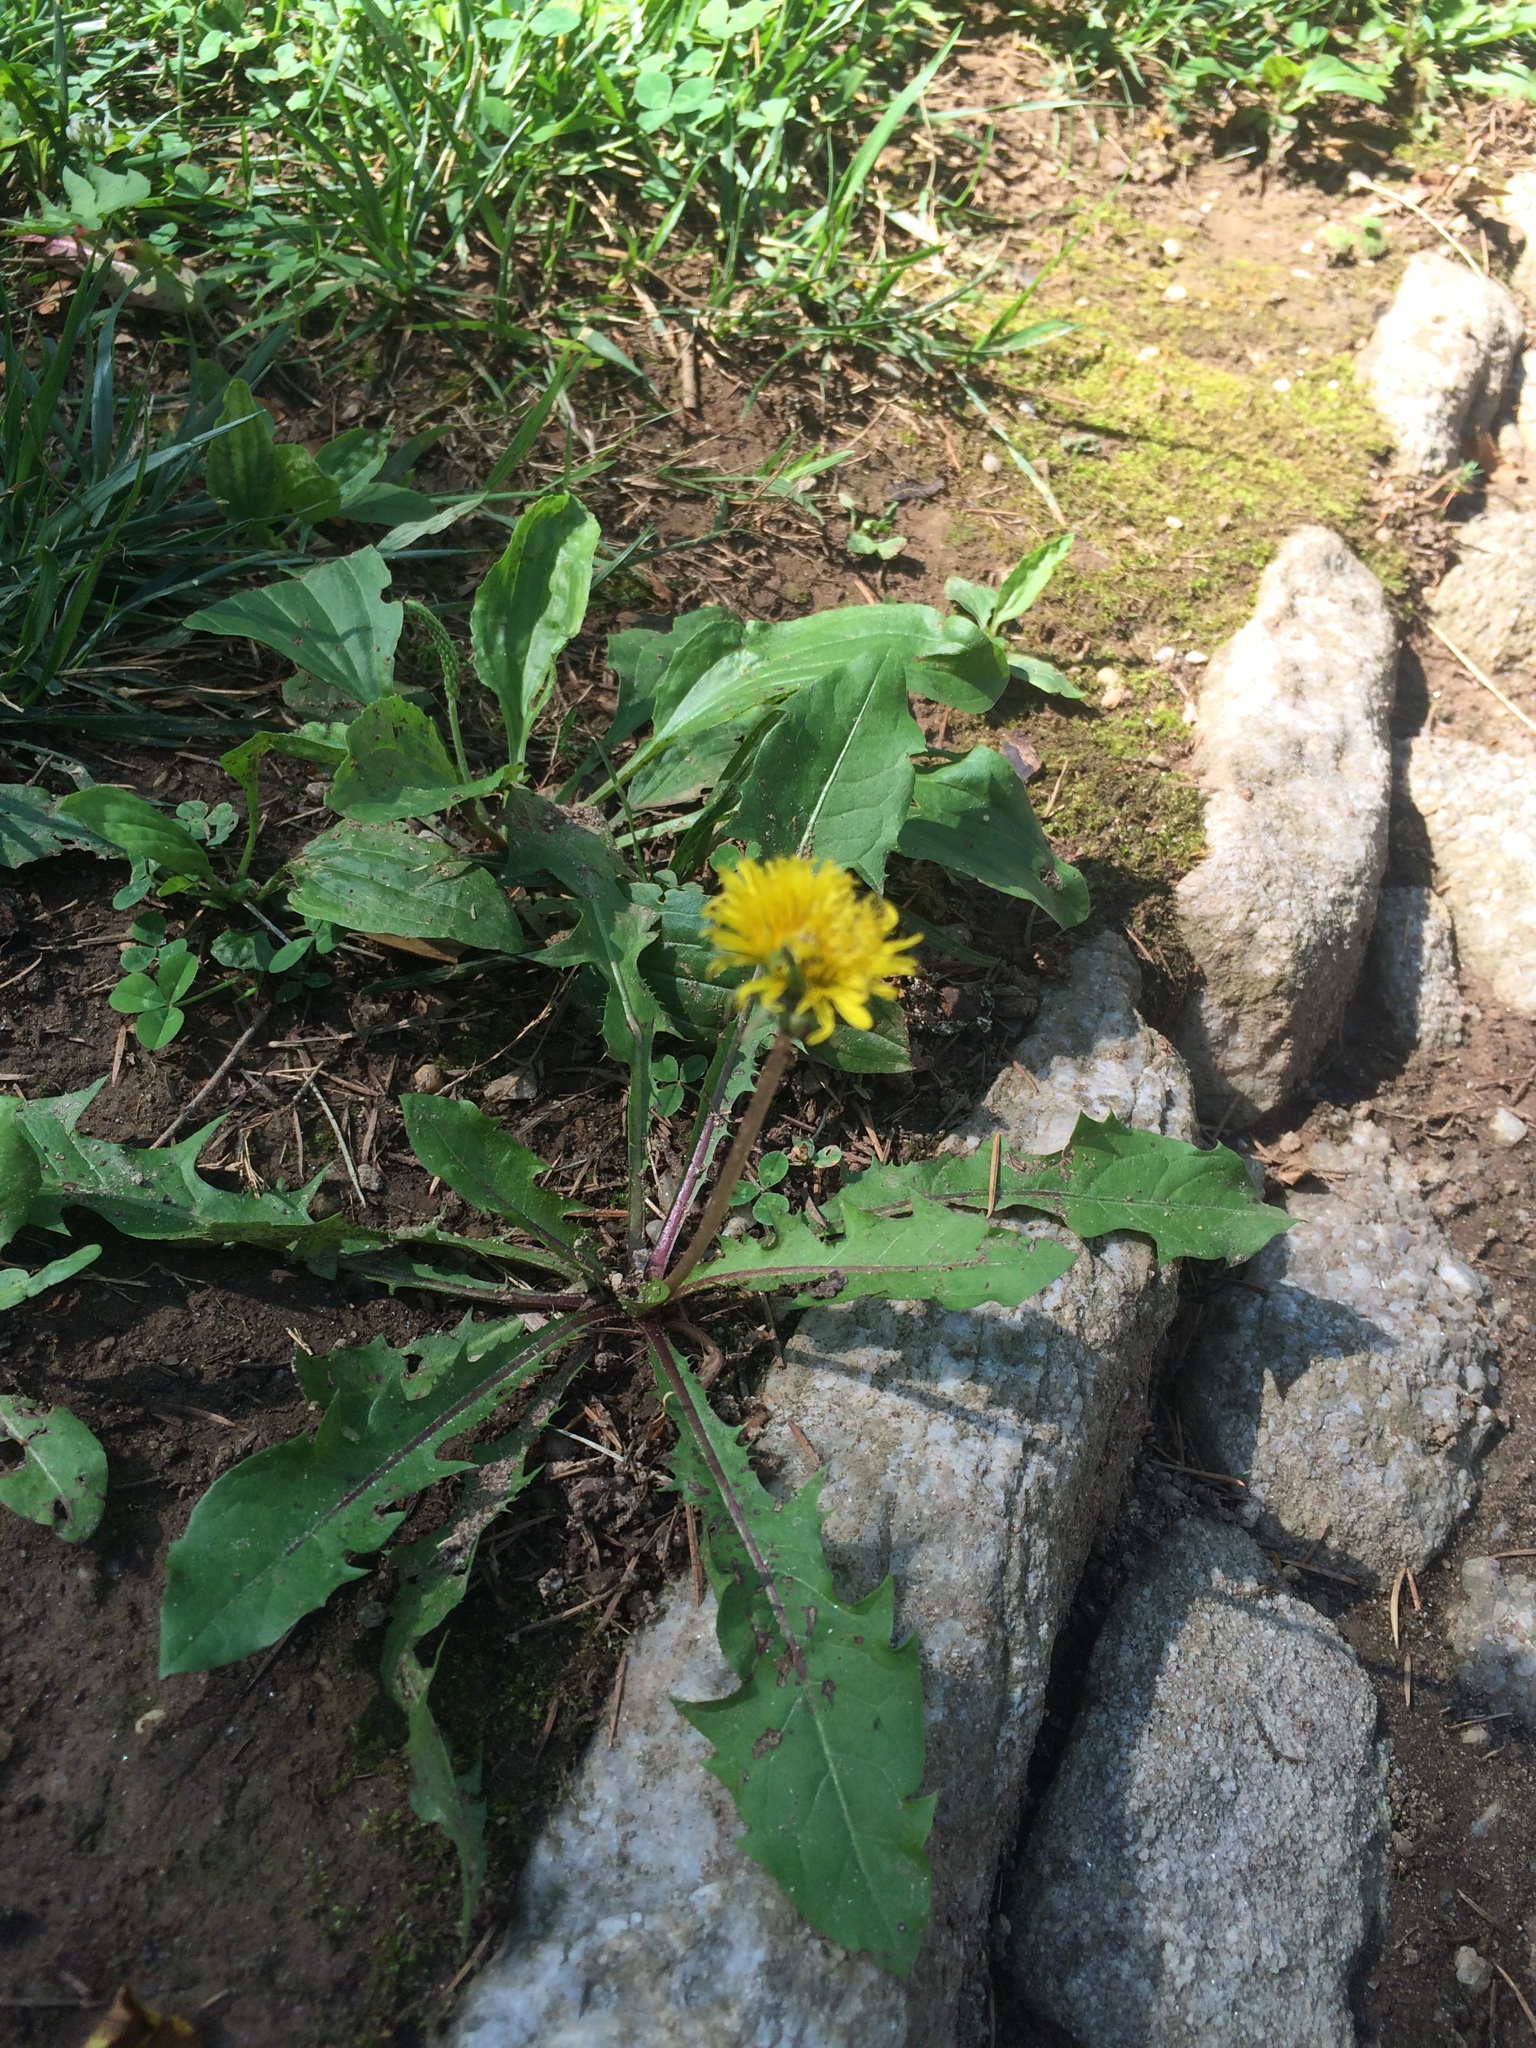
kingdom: Plantae
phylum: Tracheophyta
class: Magnoliopsida
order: Asterales
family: Asteraceae
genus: Taraxacum
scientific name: Taraxacum officinale
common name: Common dandelion
